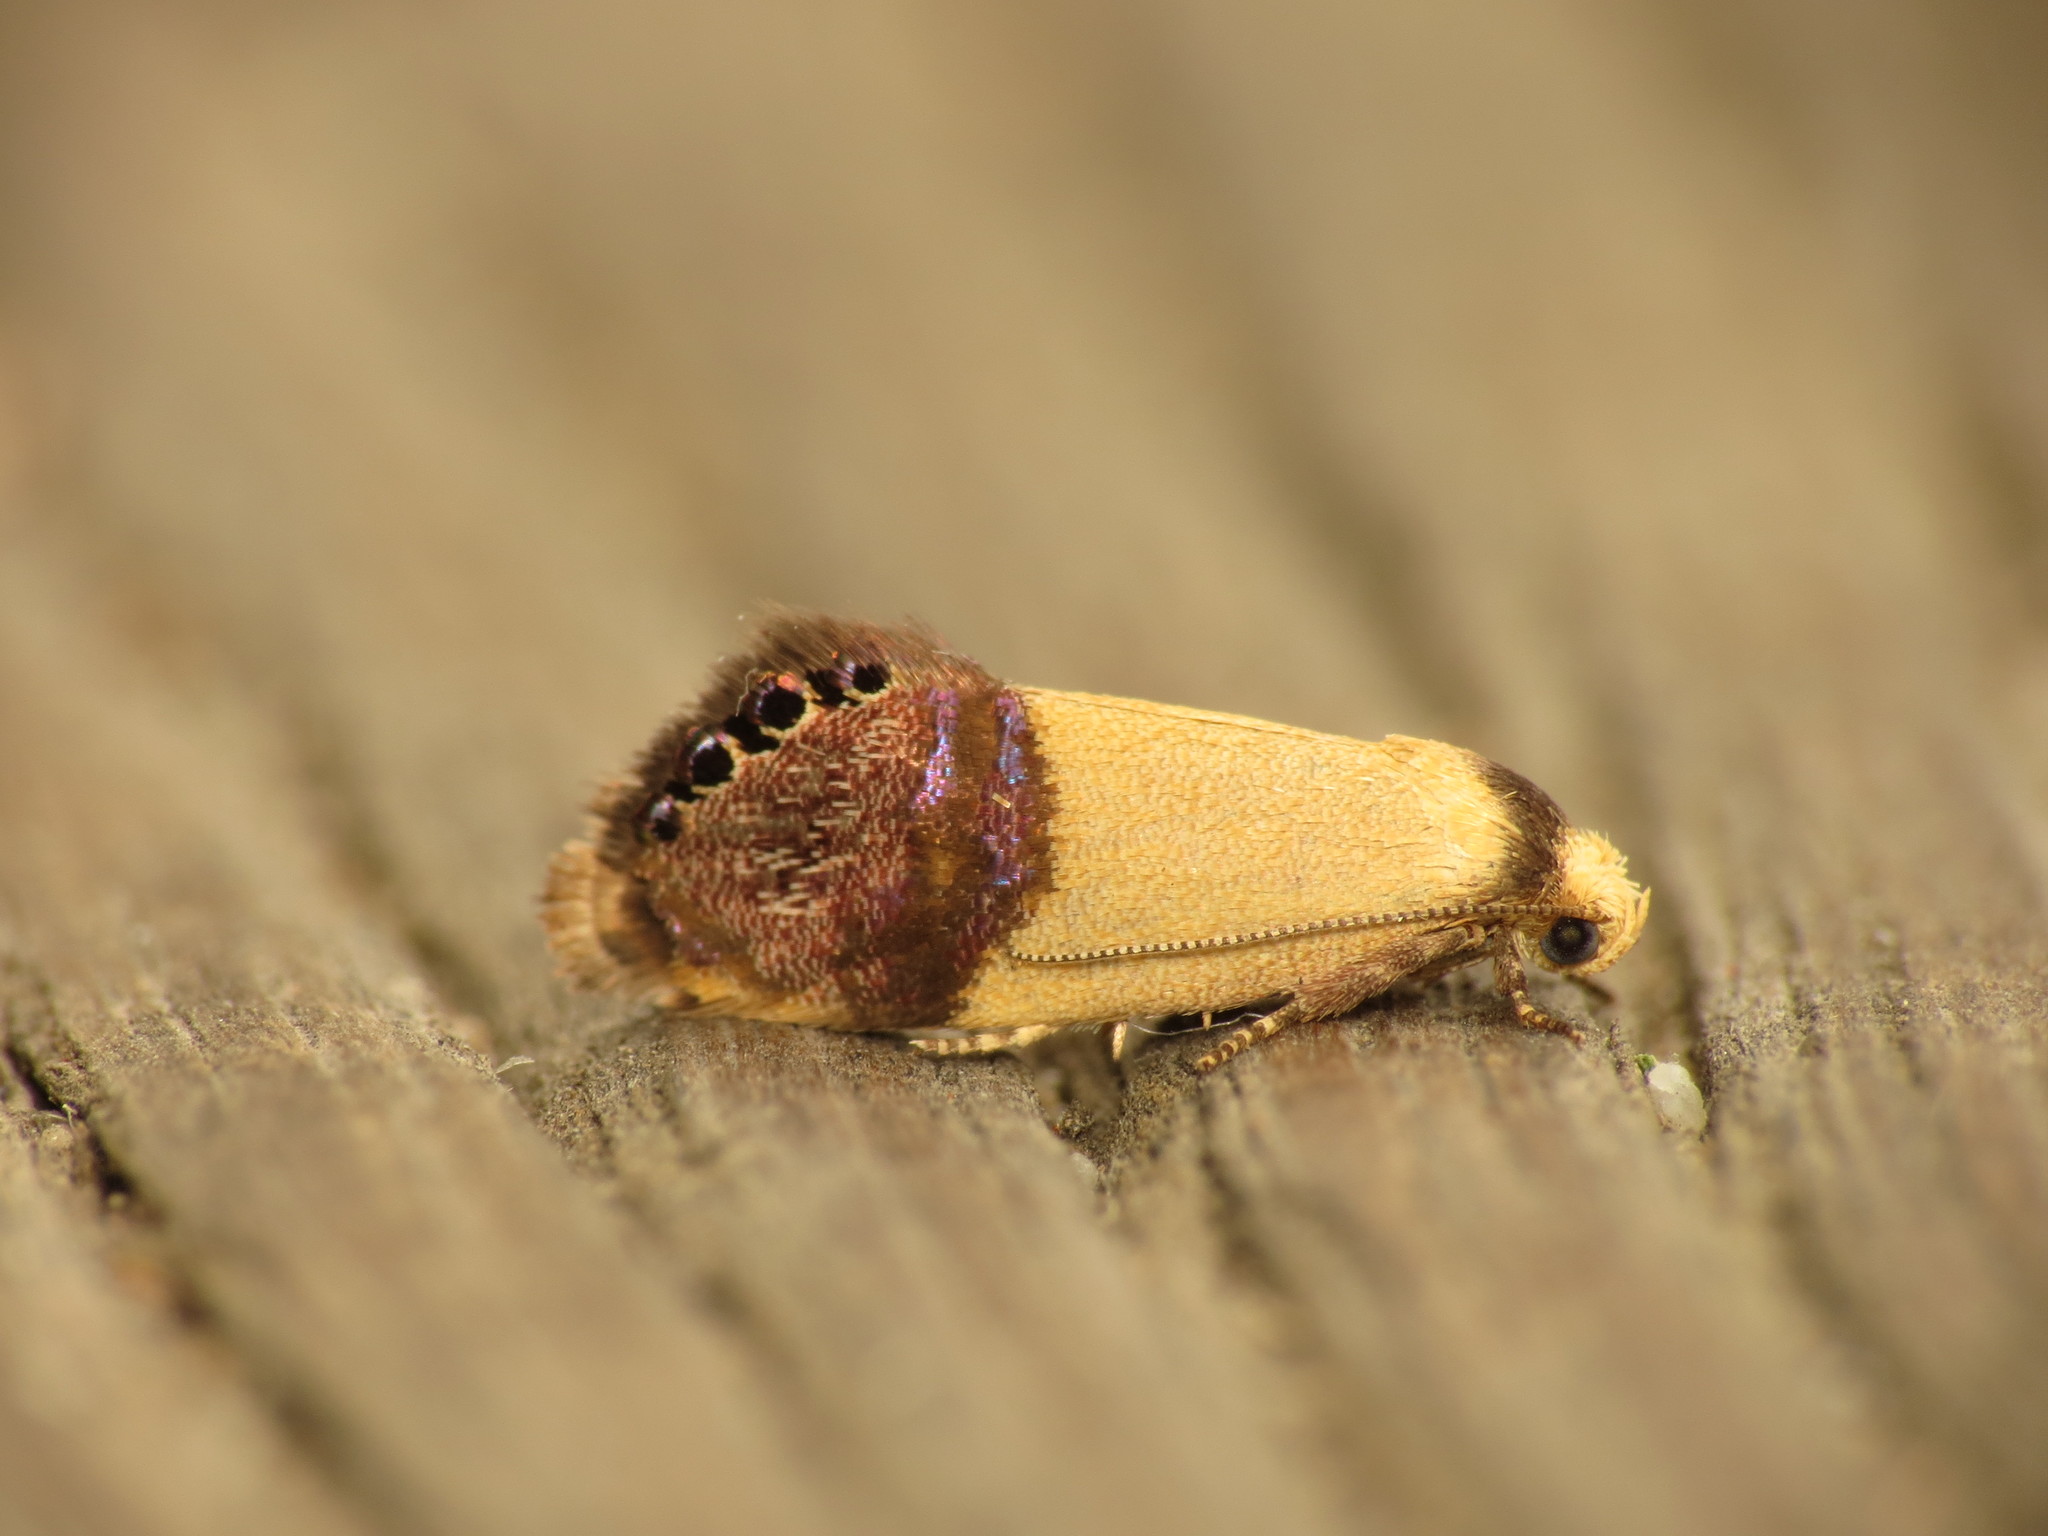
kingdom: Animalia
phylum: Arthropoda
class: Insecta
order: Lepidoptera
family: Depressariidae
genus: Eupselia
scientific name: Eupselia satrapella
